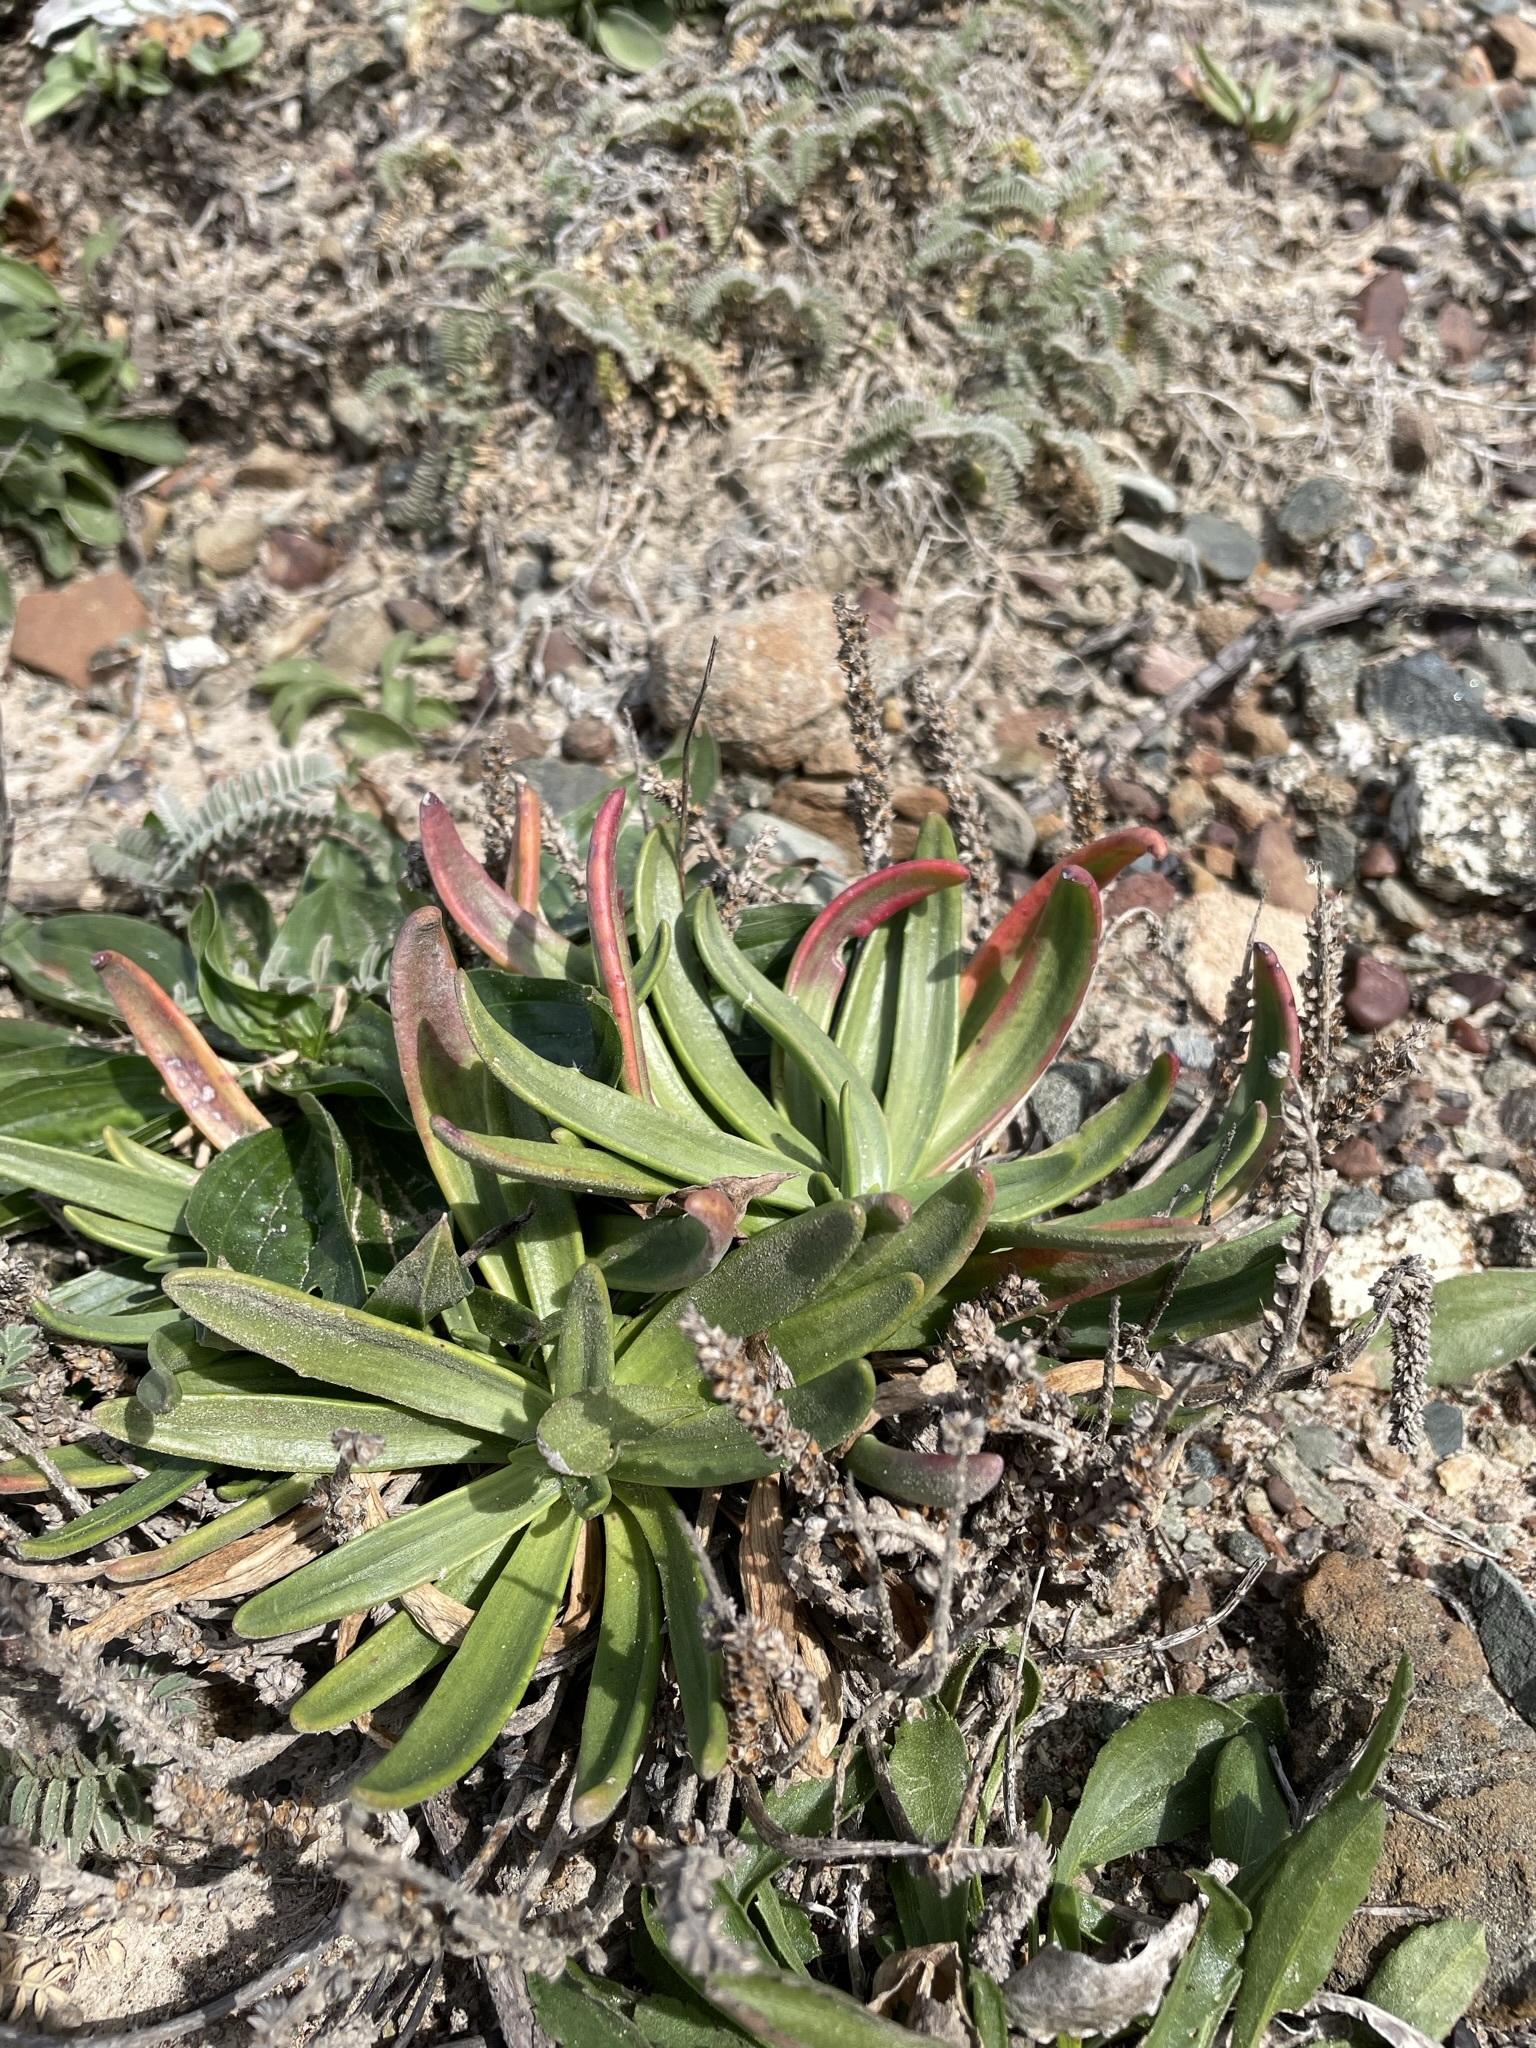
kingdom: Plantae
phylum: Tracheophyta
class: Magnoliopsida
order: Lamiales
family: Plantaginaceae
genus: Plantago
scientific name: Plantago maritima
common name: Sea plantain
